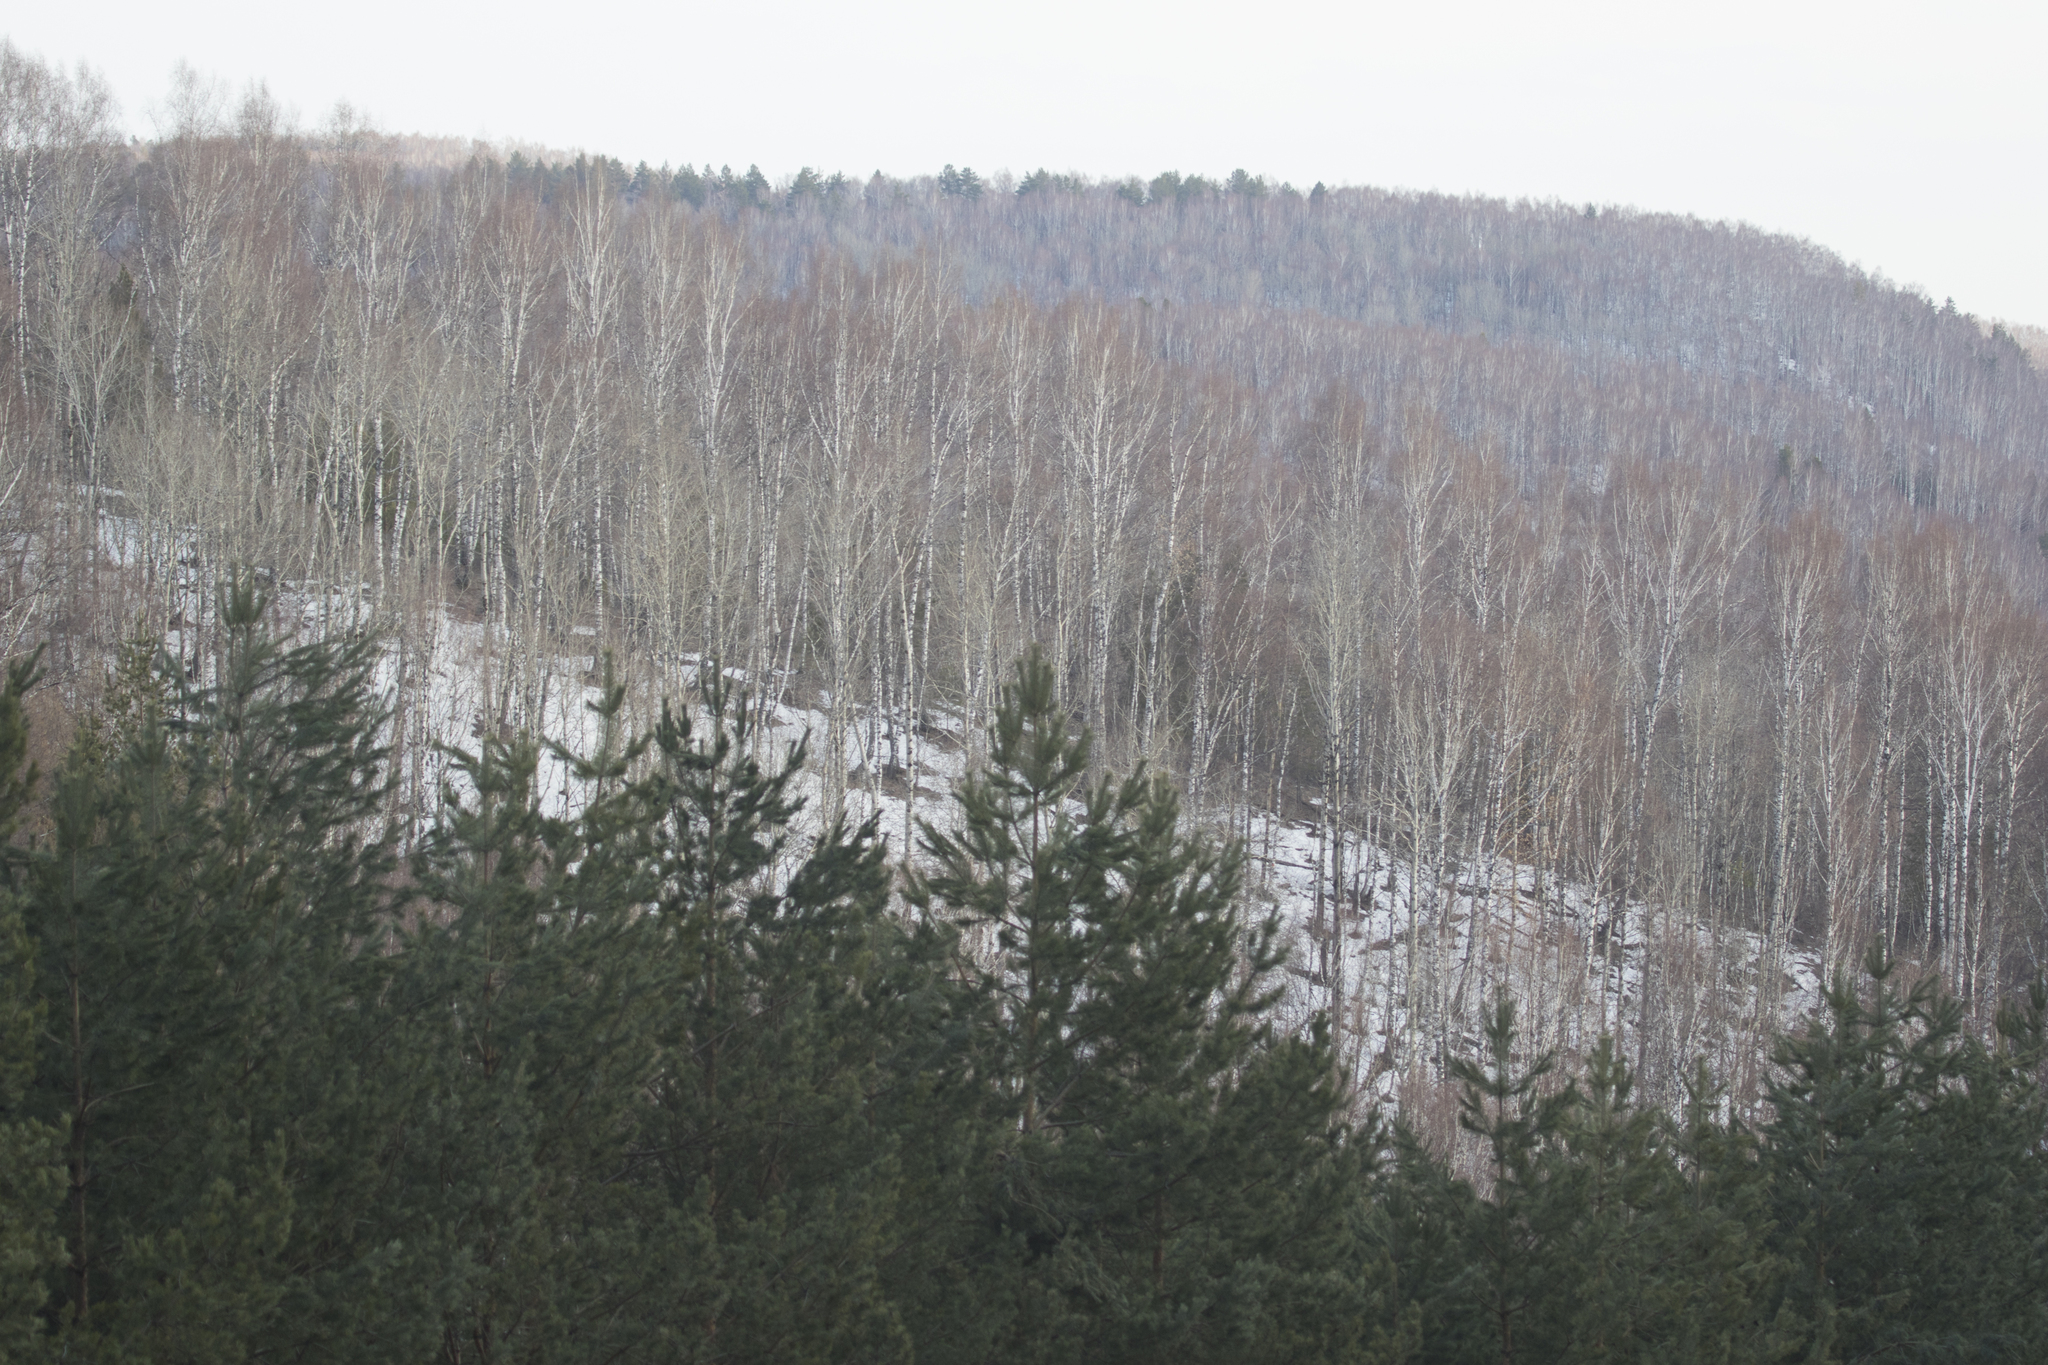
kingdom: Plantae
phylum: Tracheophyta
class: Pinopsida
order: Pinales
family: Pinaceae
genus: Pinus
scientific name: Pinus sylvestris
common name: Scots pine
